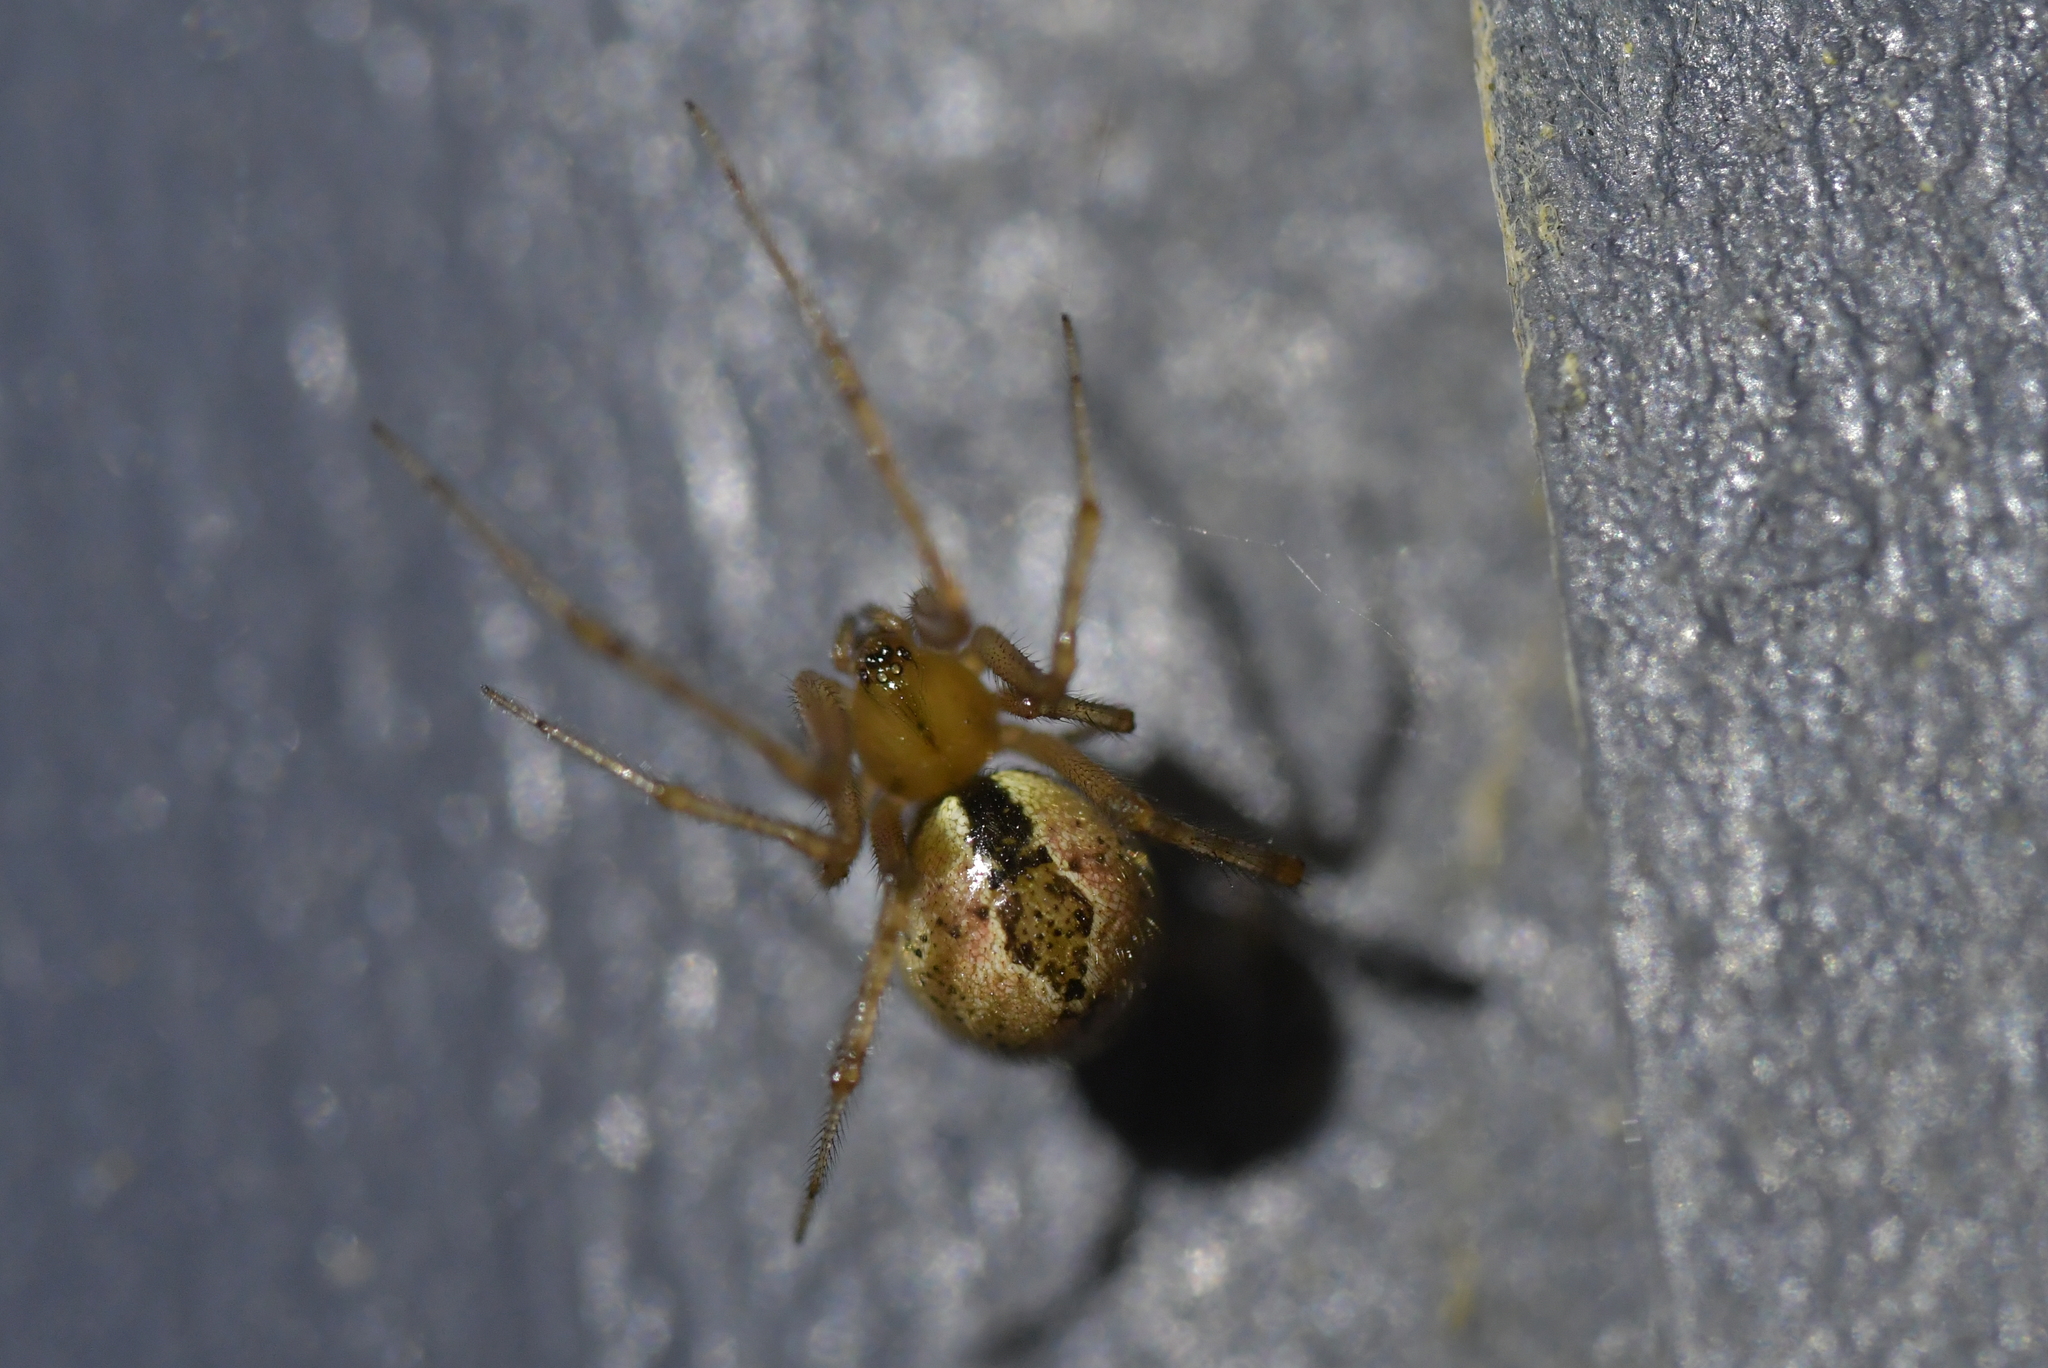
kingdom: Animalia
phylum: Arthropoda
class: Arachnida
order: Araneae
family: Theridiidae
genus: Cryptachaea
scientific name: Cryptachaea veruculata
